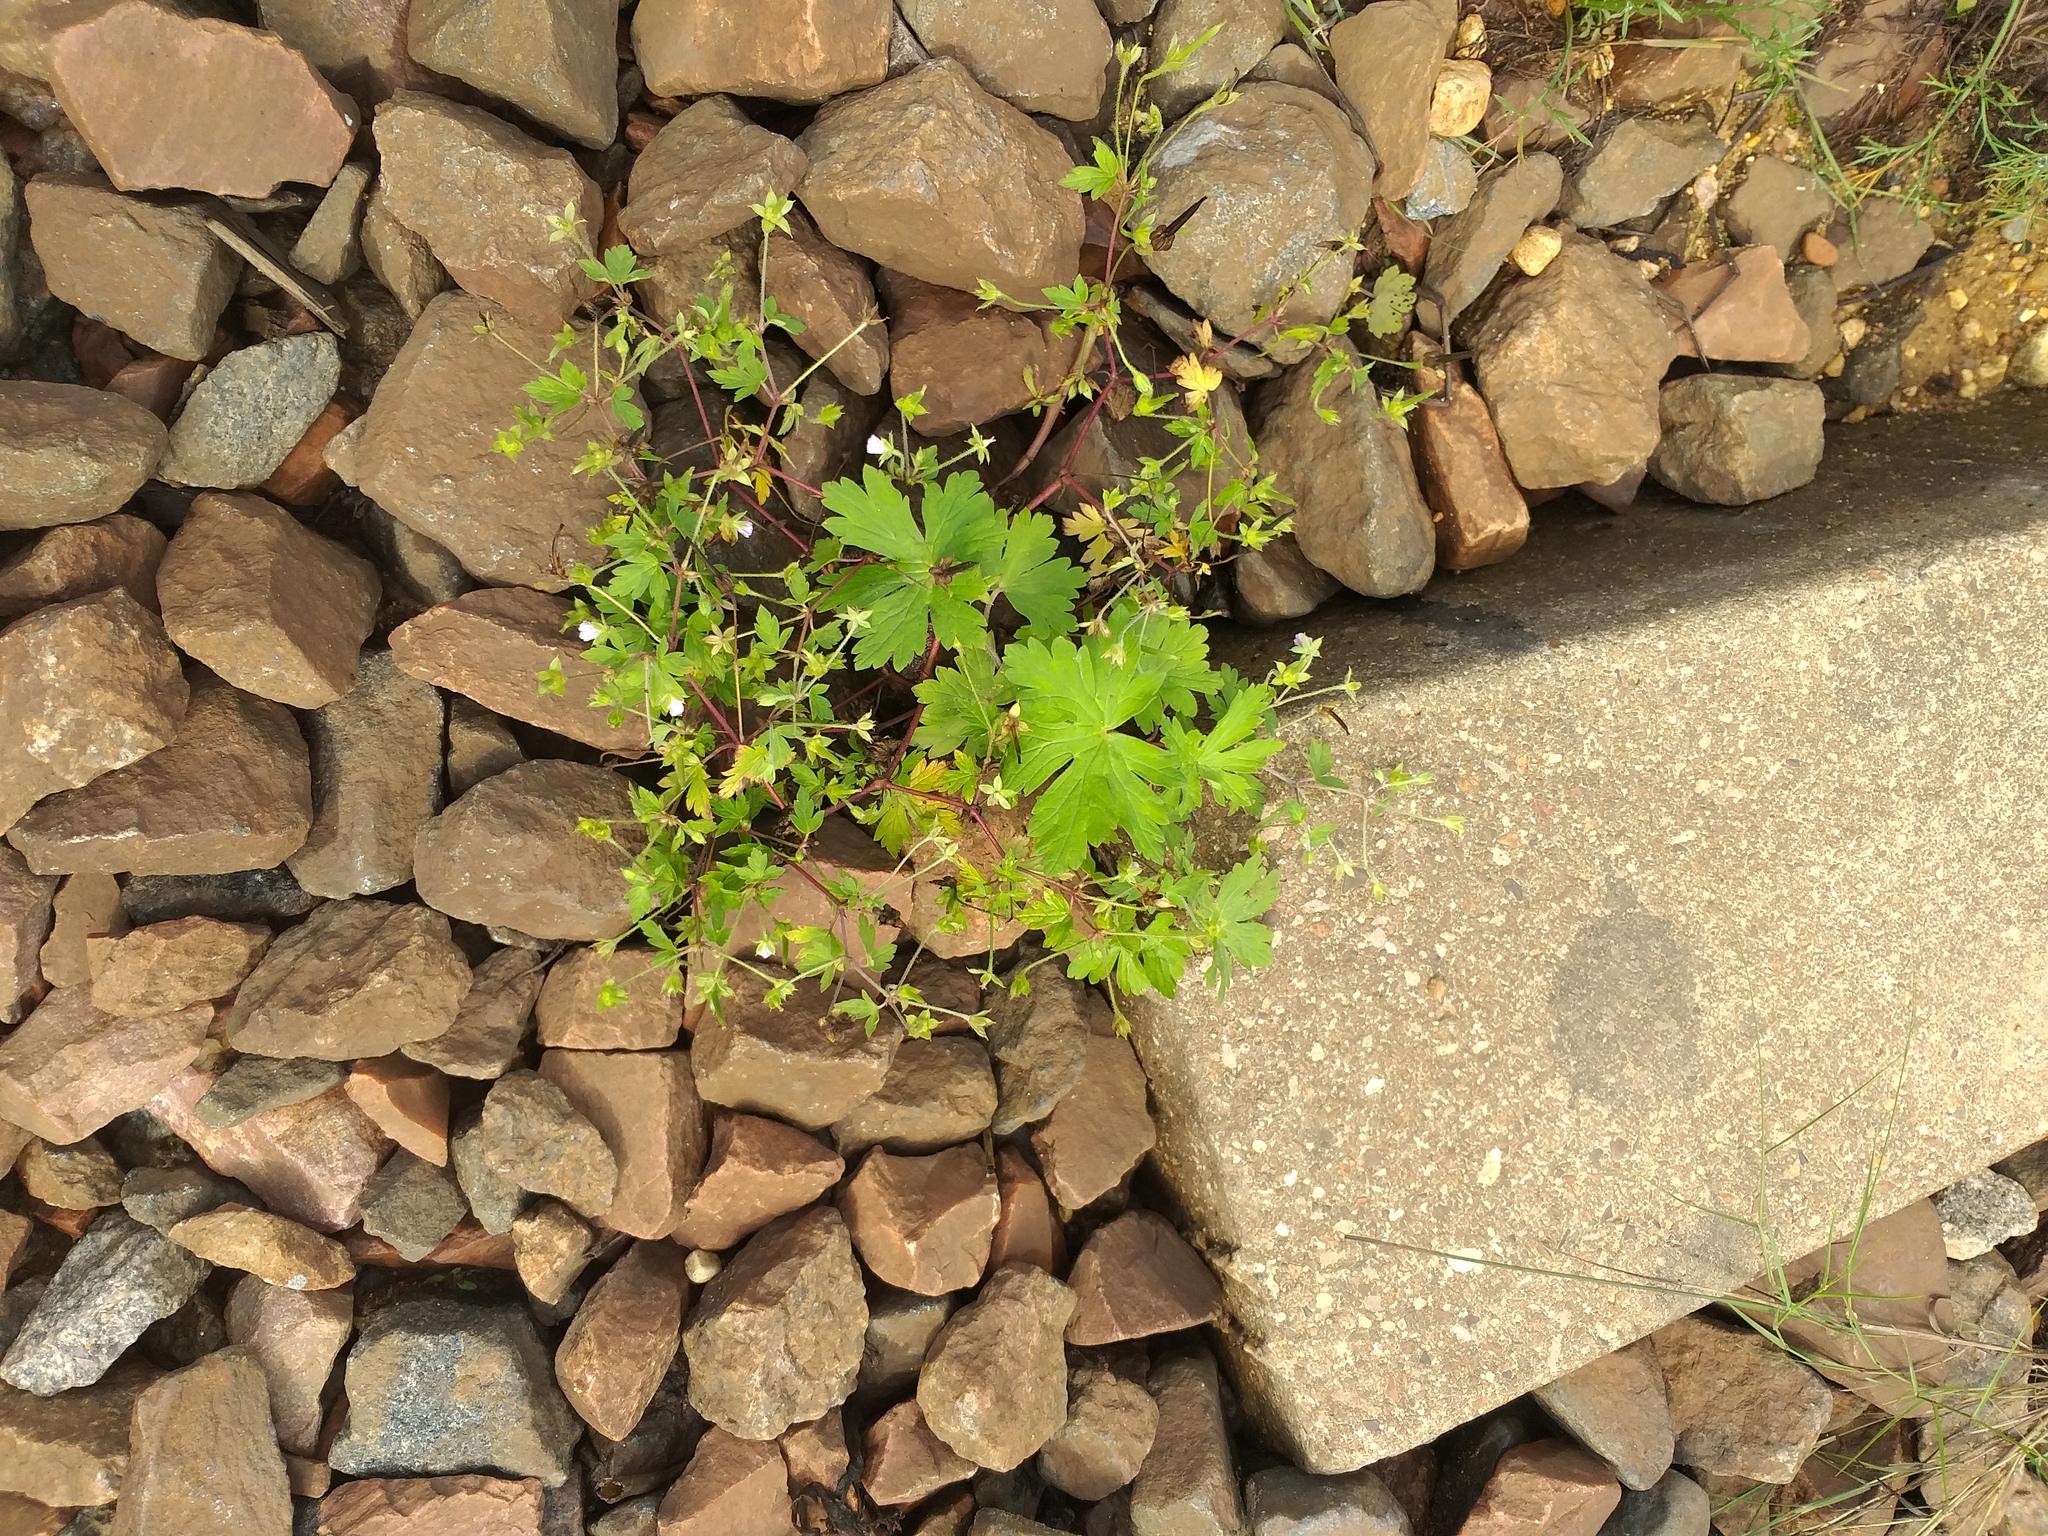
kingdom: Plantae
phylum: Tracheophyta
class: Magnoliopsida
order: Geraniales
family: Geraniaceae
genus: Geranium
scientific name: Geranium sibiricum
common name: Siberian crane's-bill
